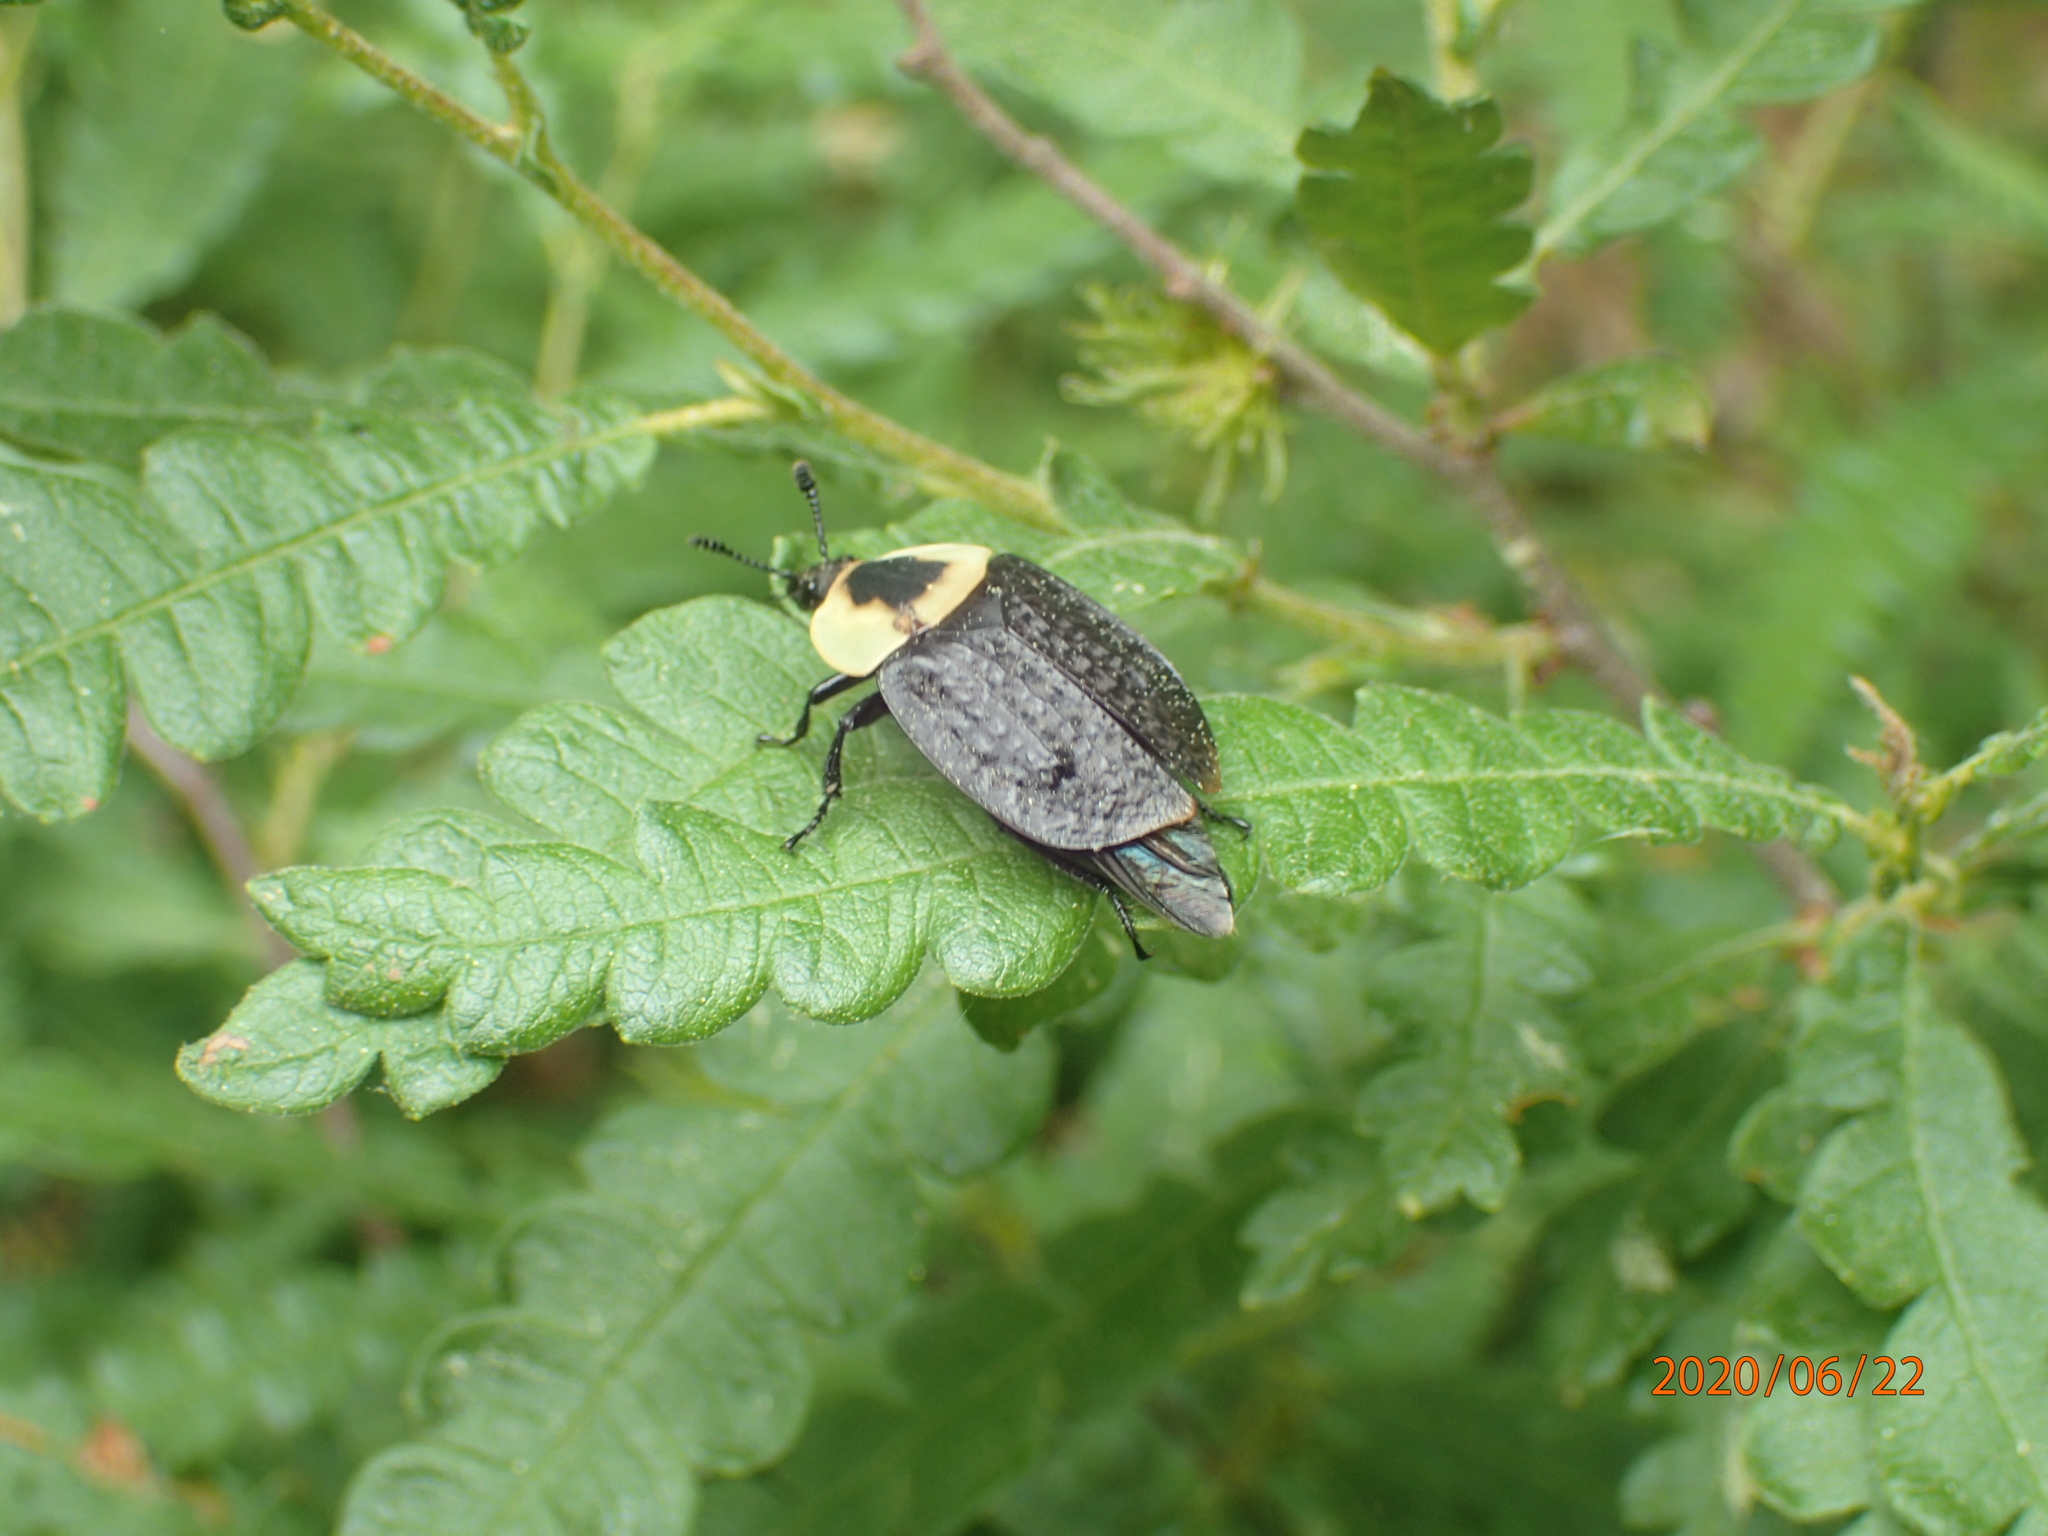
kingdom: Animalia
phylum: Arthropoda
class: Insecta
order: Coleoptera
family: Staphylinidae
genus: Necrophila
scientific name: Necrophila americana
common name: American carrion beetle
